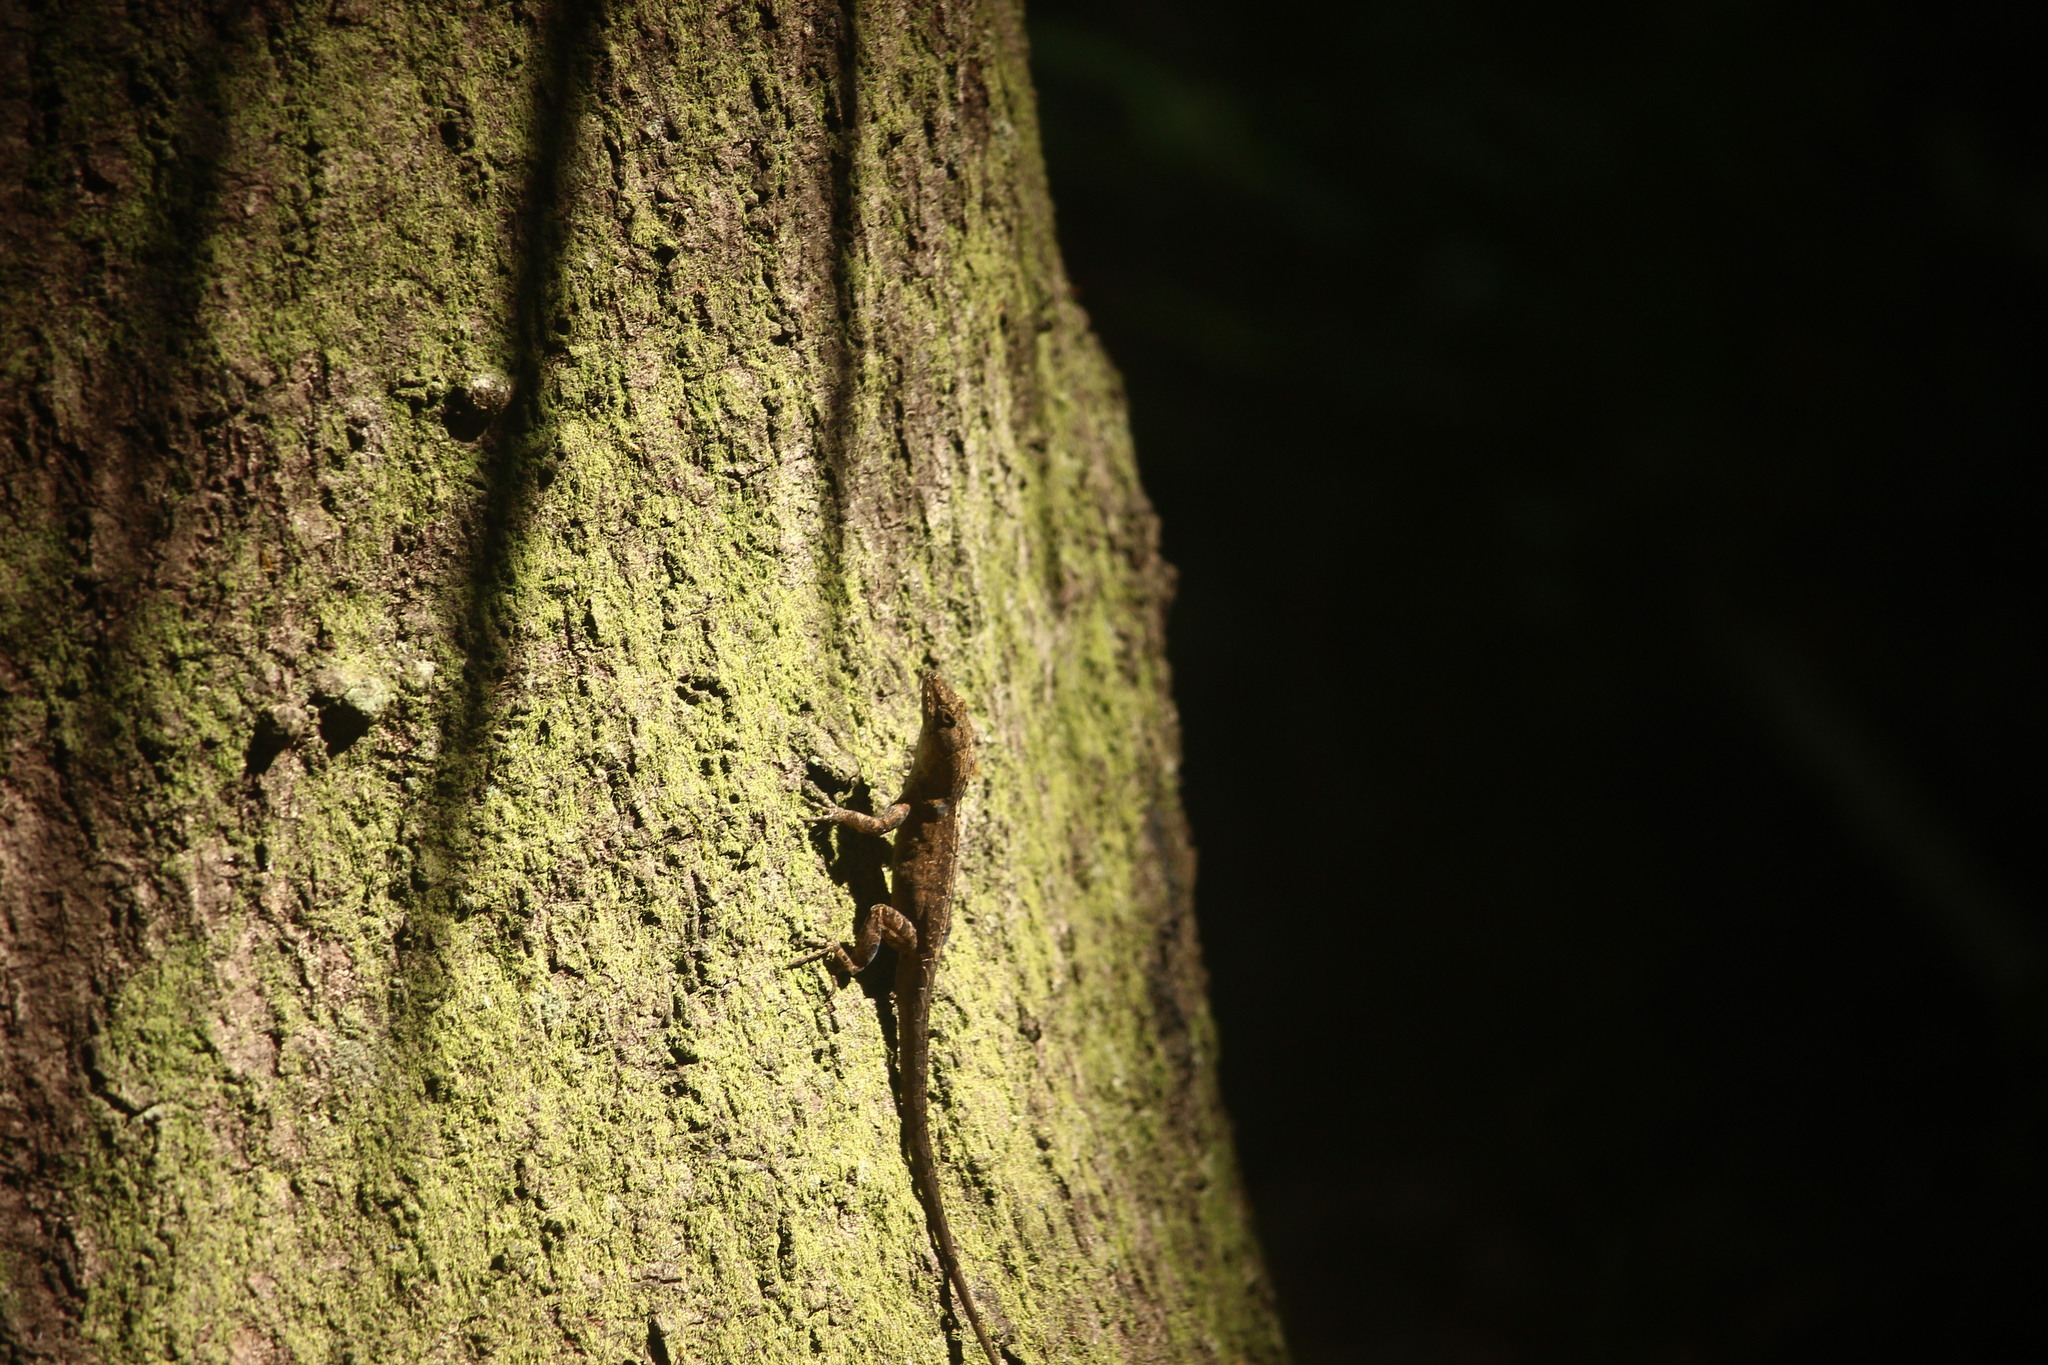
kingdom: Animalia
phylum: Chordata
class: Squamata
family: Dactyloidae
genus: Anolis
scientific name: Anolis sagrei
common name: Brown anole
